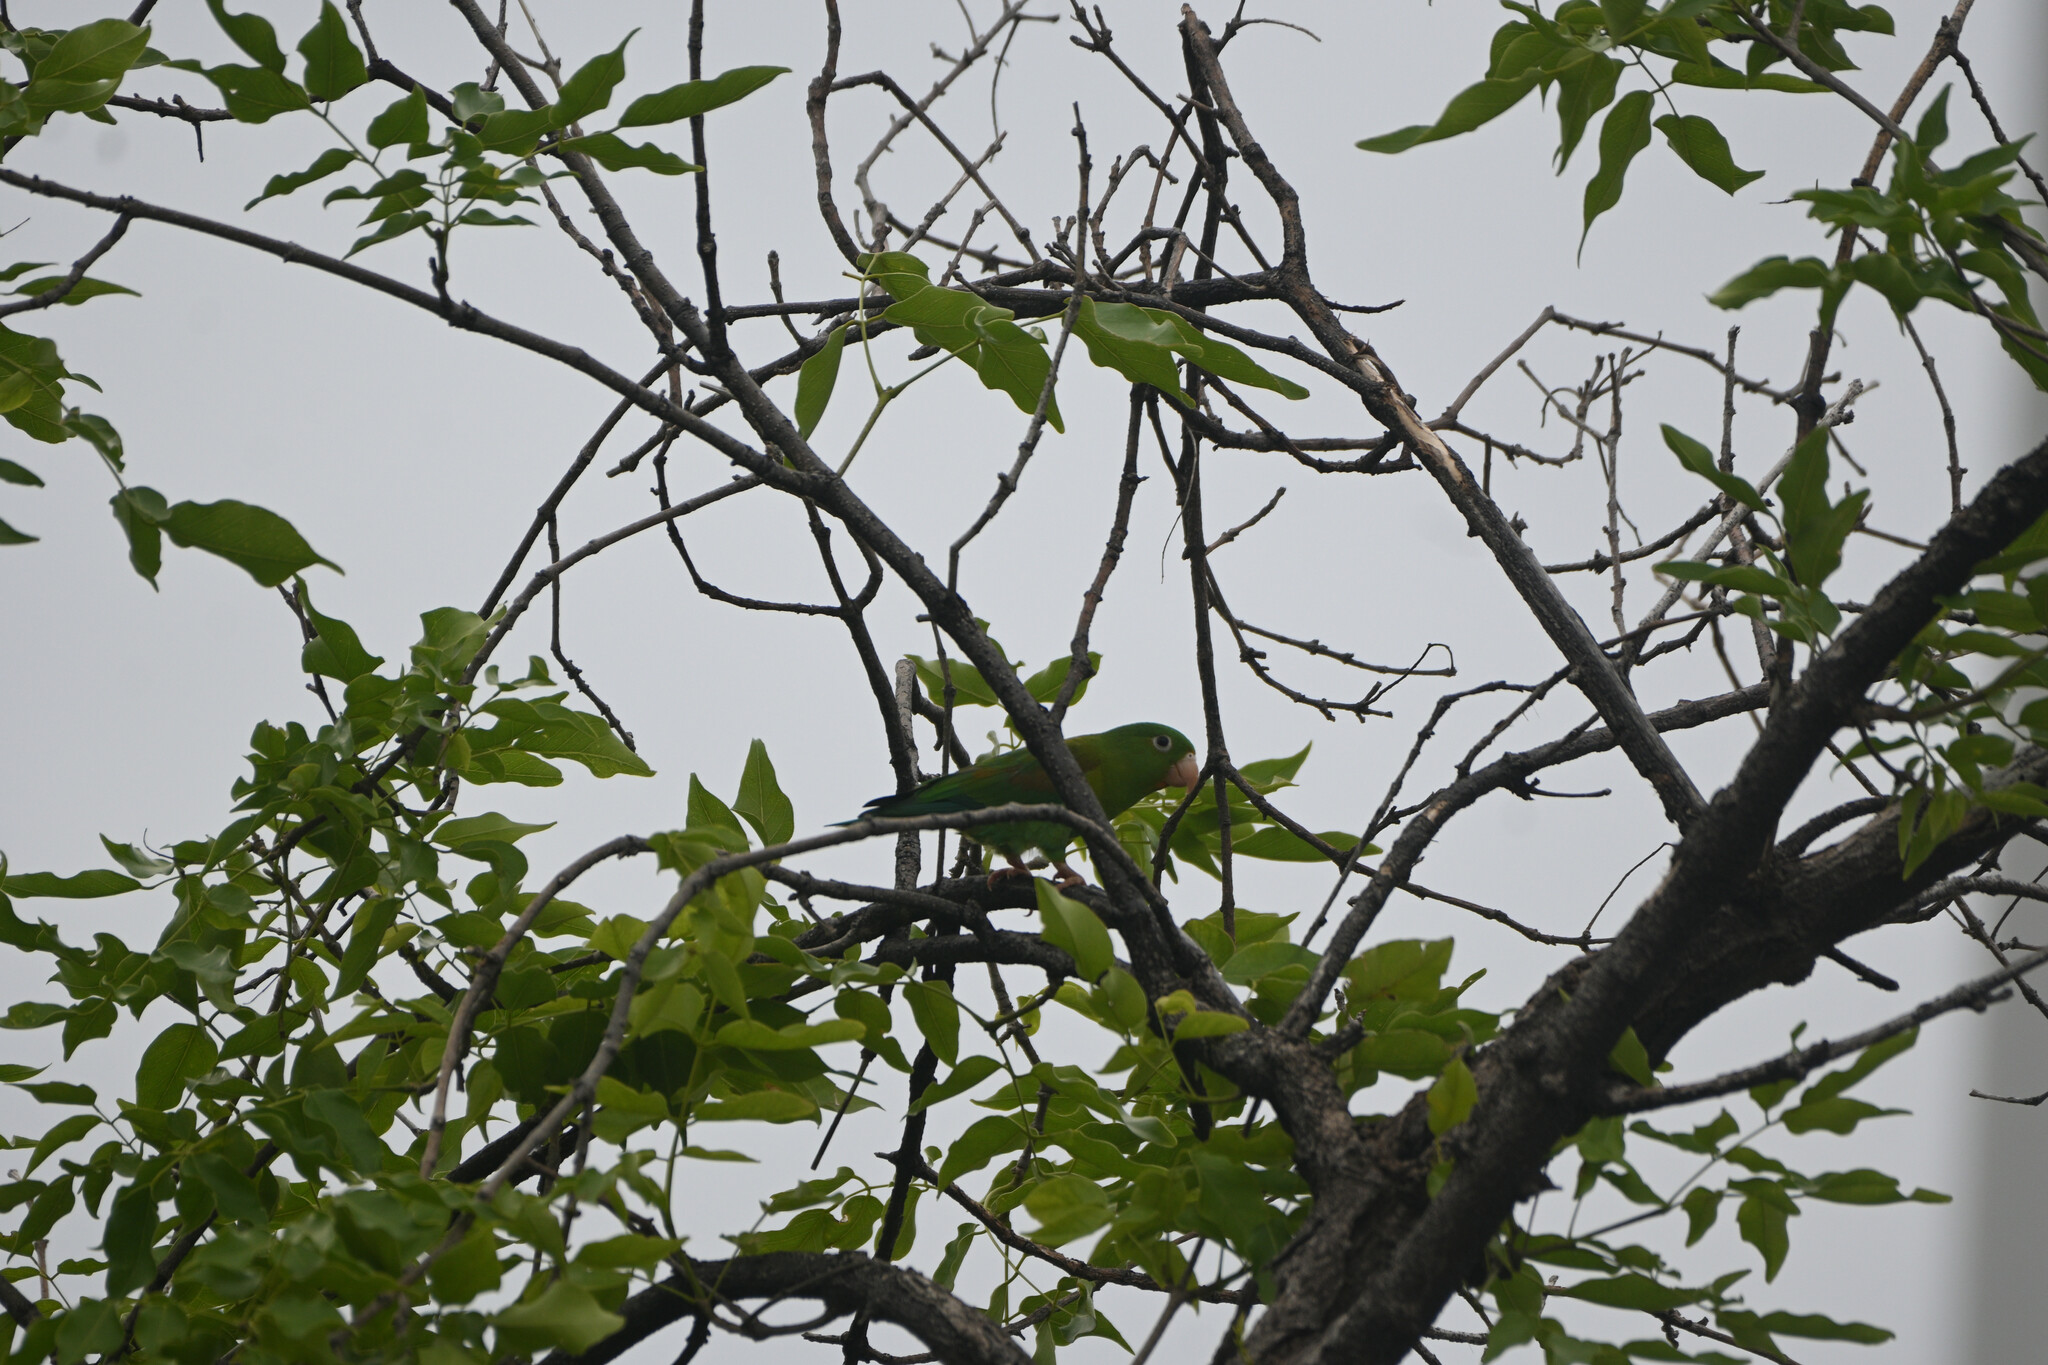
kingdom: Animalia
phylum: Chordata
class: Aves
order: Psittaciformes
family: Psittacidae
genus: Brotogeris
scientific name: Brotogeris jugularis
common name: Orange-chinned parakeet
